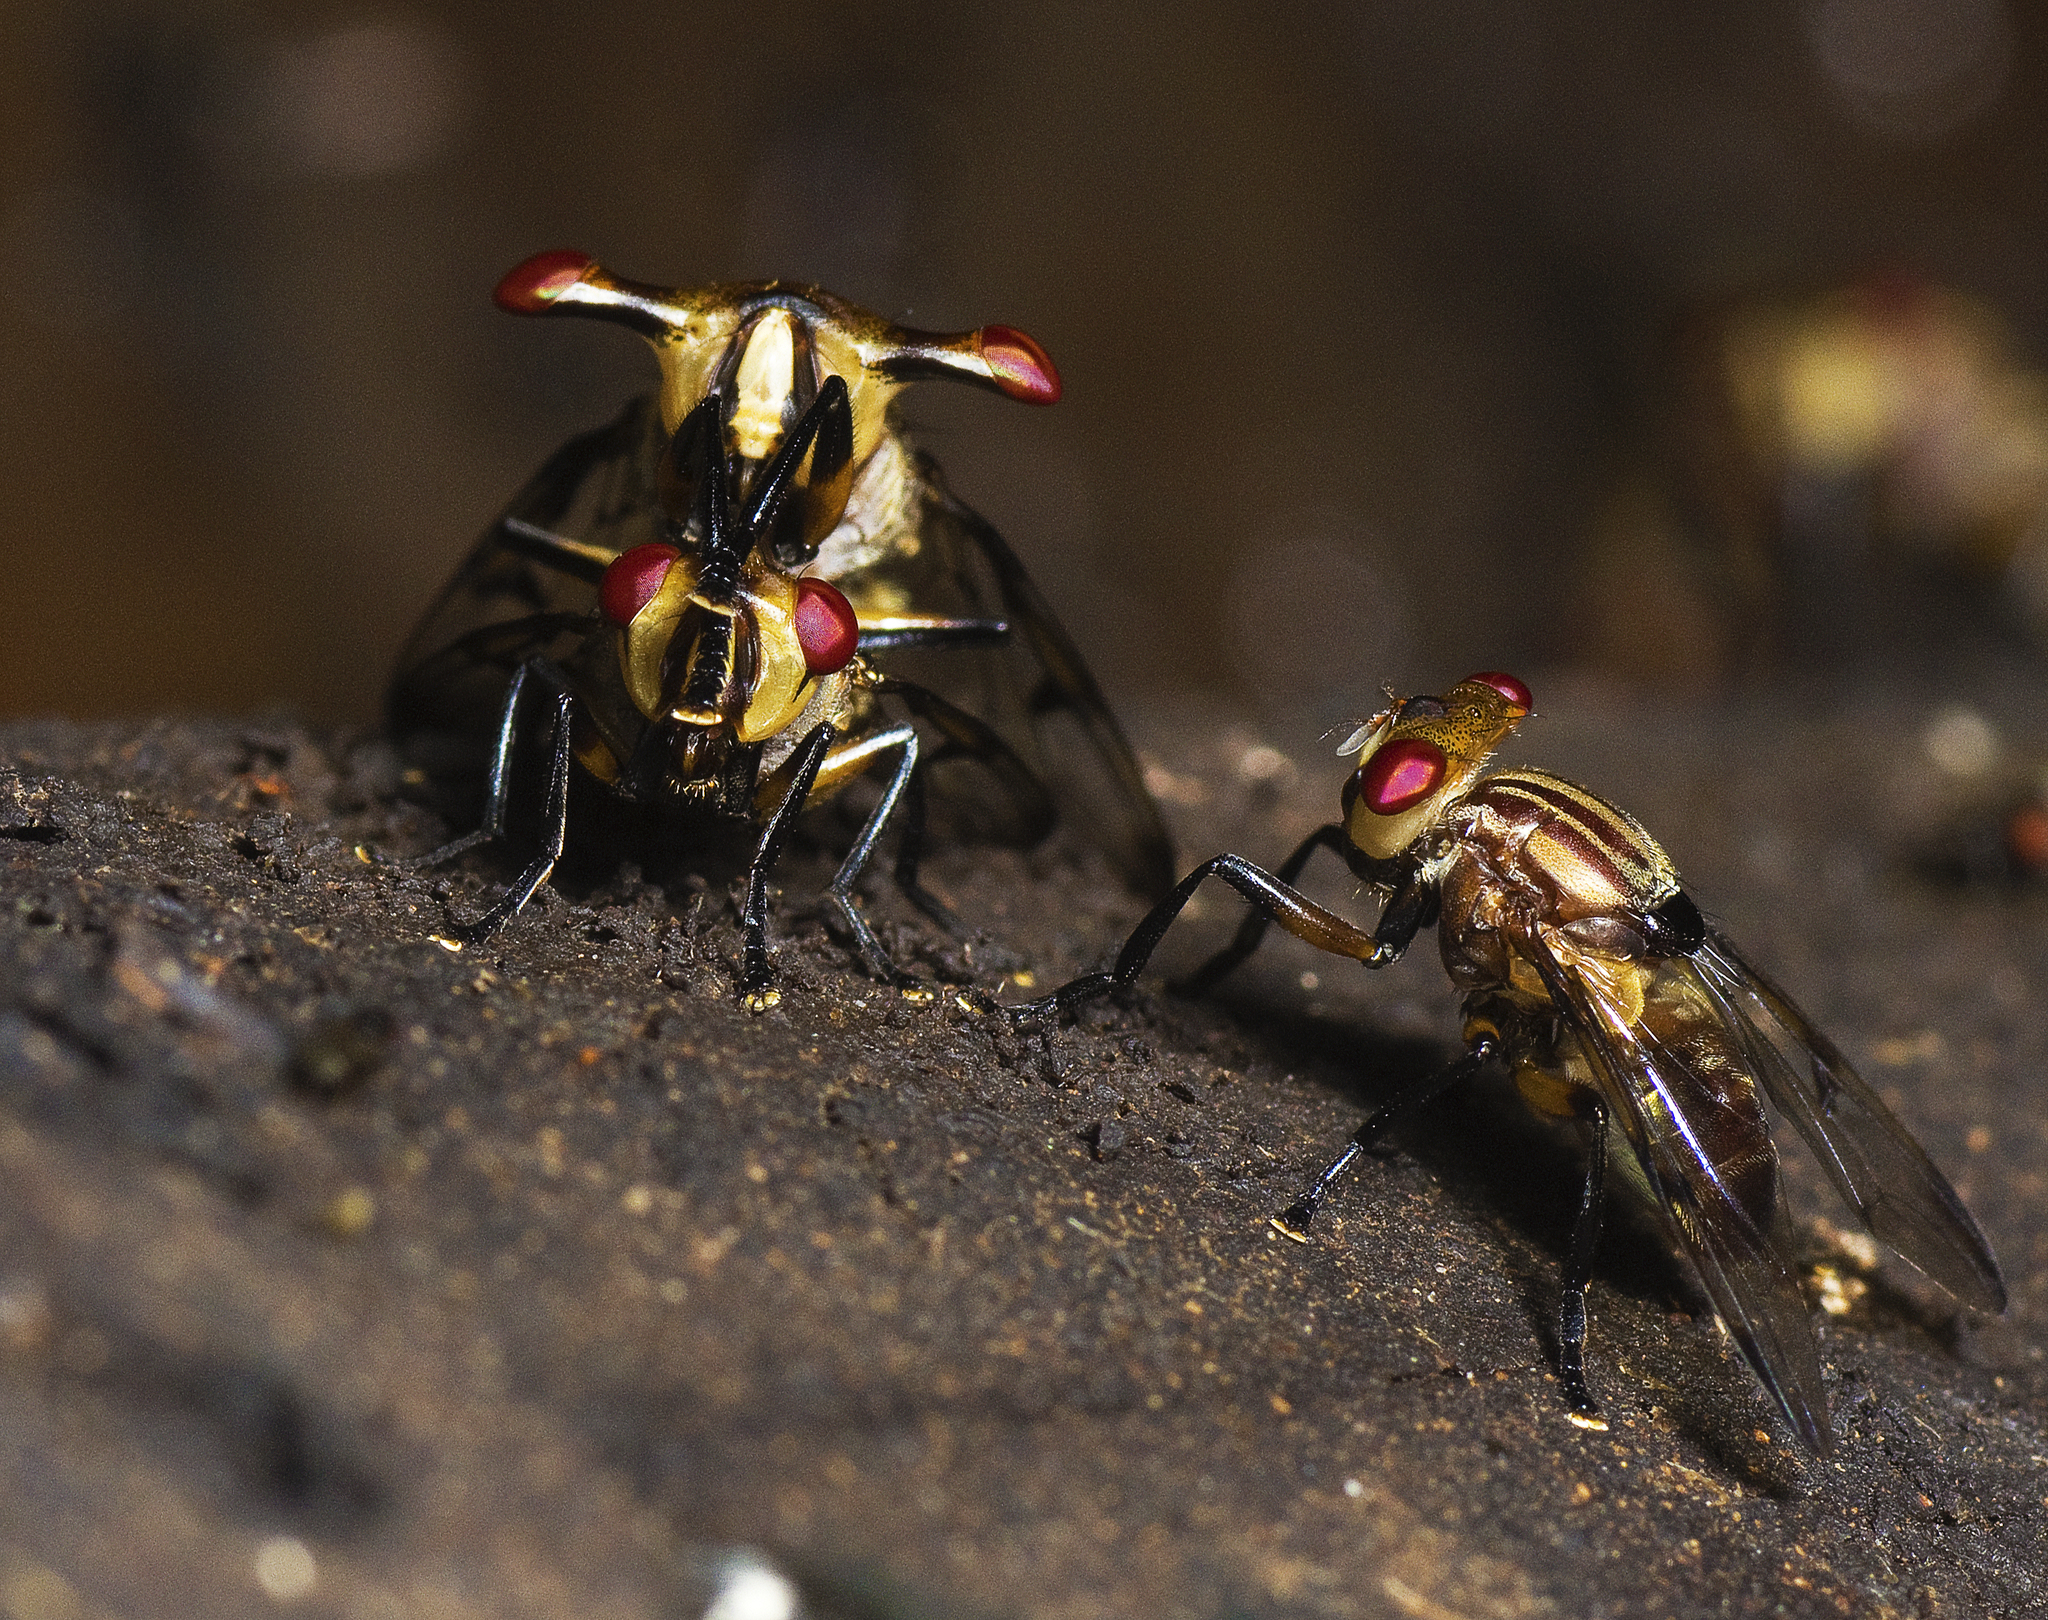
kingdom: Animalia
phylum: Arthropoda
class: Insecta
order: Diptera
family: Platystomatidae
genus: Achias
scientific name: Achias kurandanus
